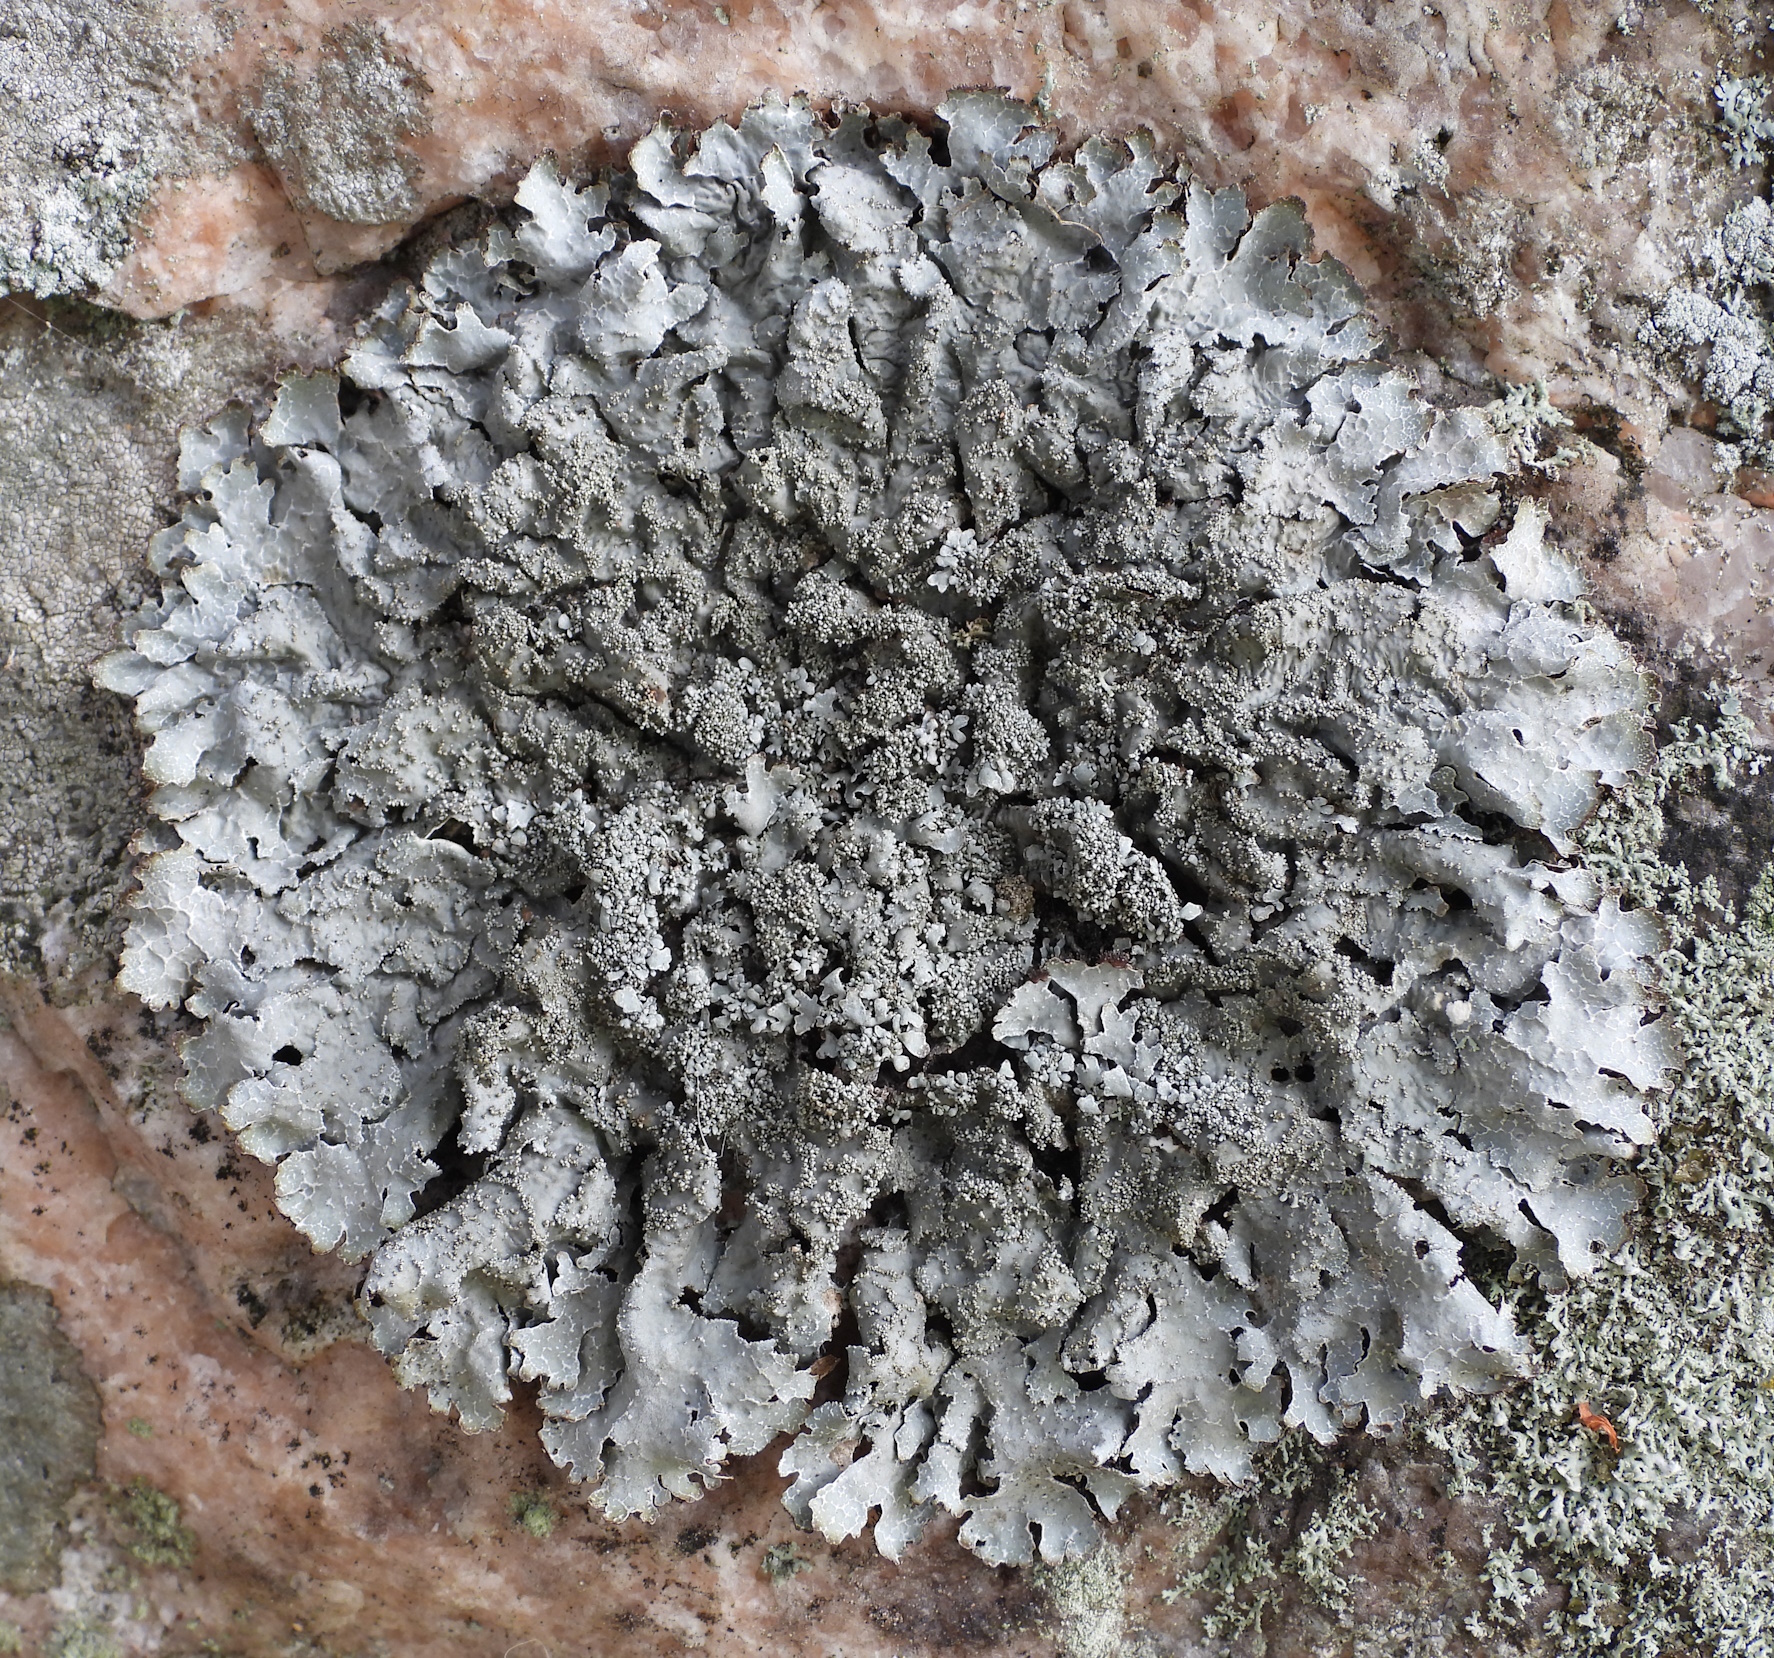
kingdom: Fungi
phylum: Ascomycota
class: Lecanoromycetes
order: Lecanorales
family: Parmeliaceae
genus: Parmelia
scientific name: Parmelia saxatilis
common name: Salted shield lichen
